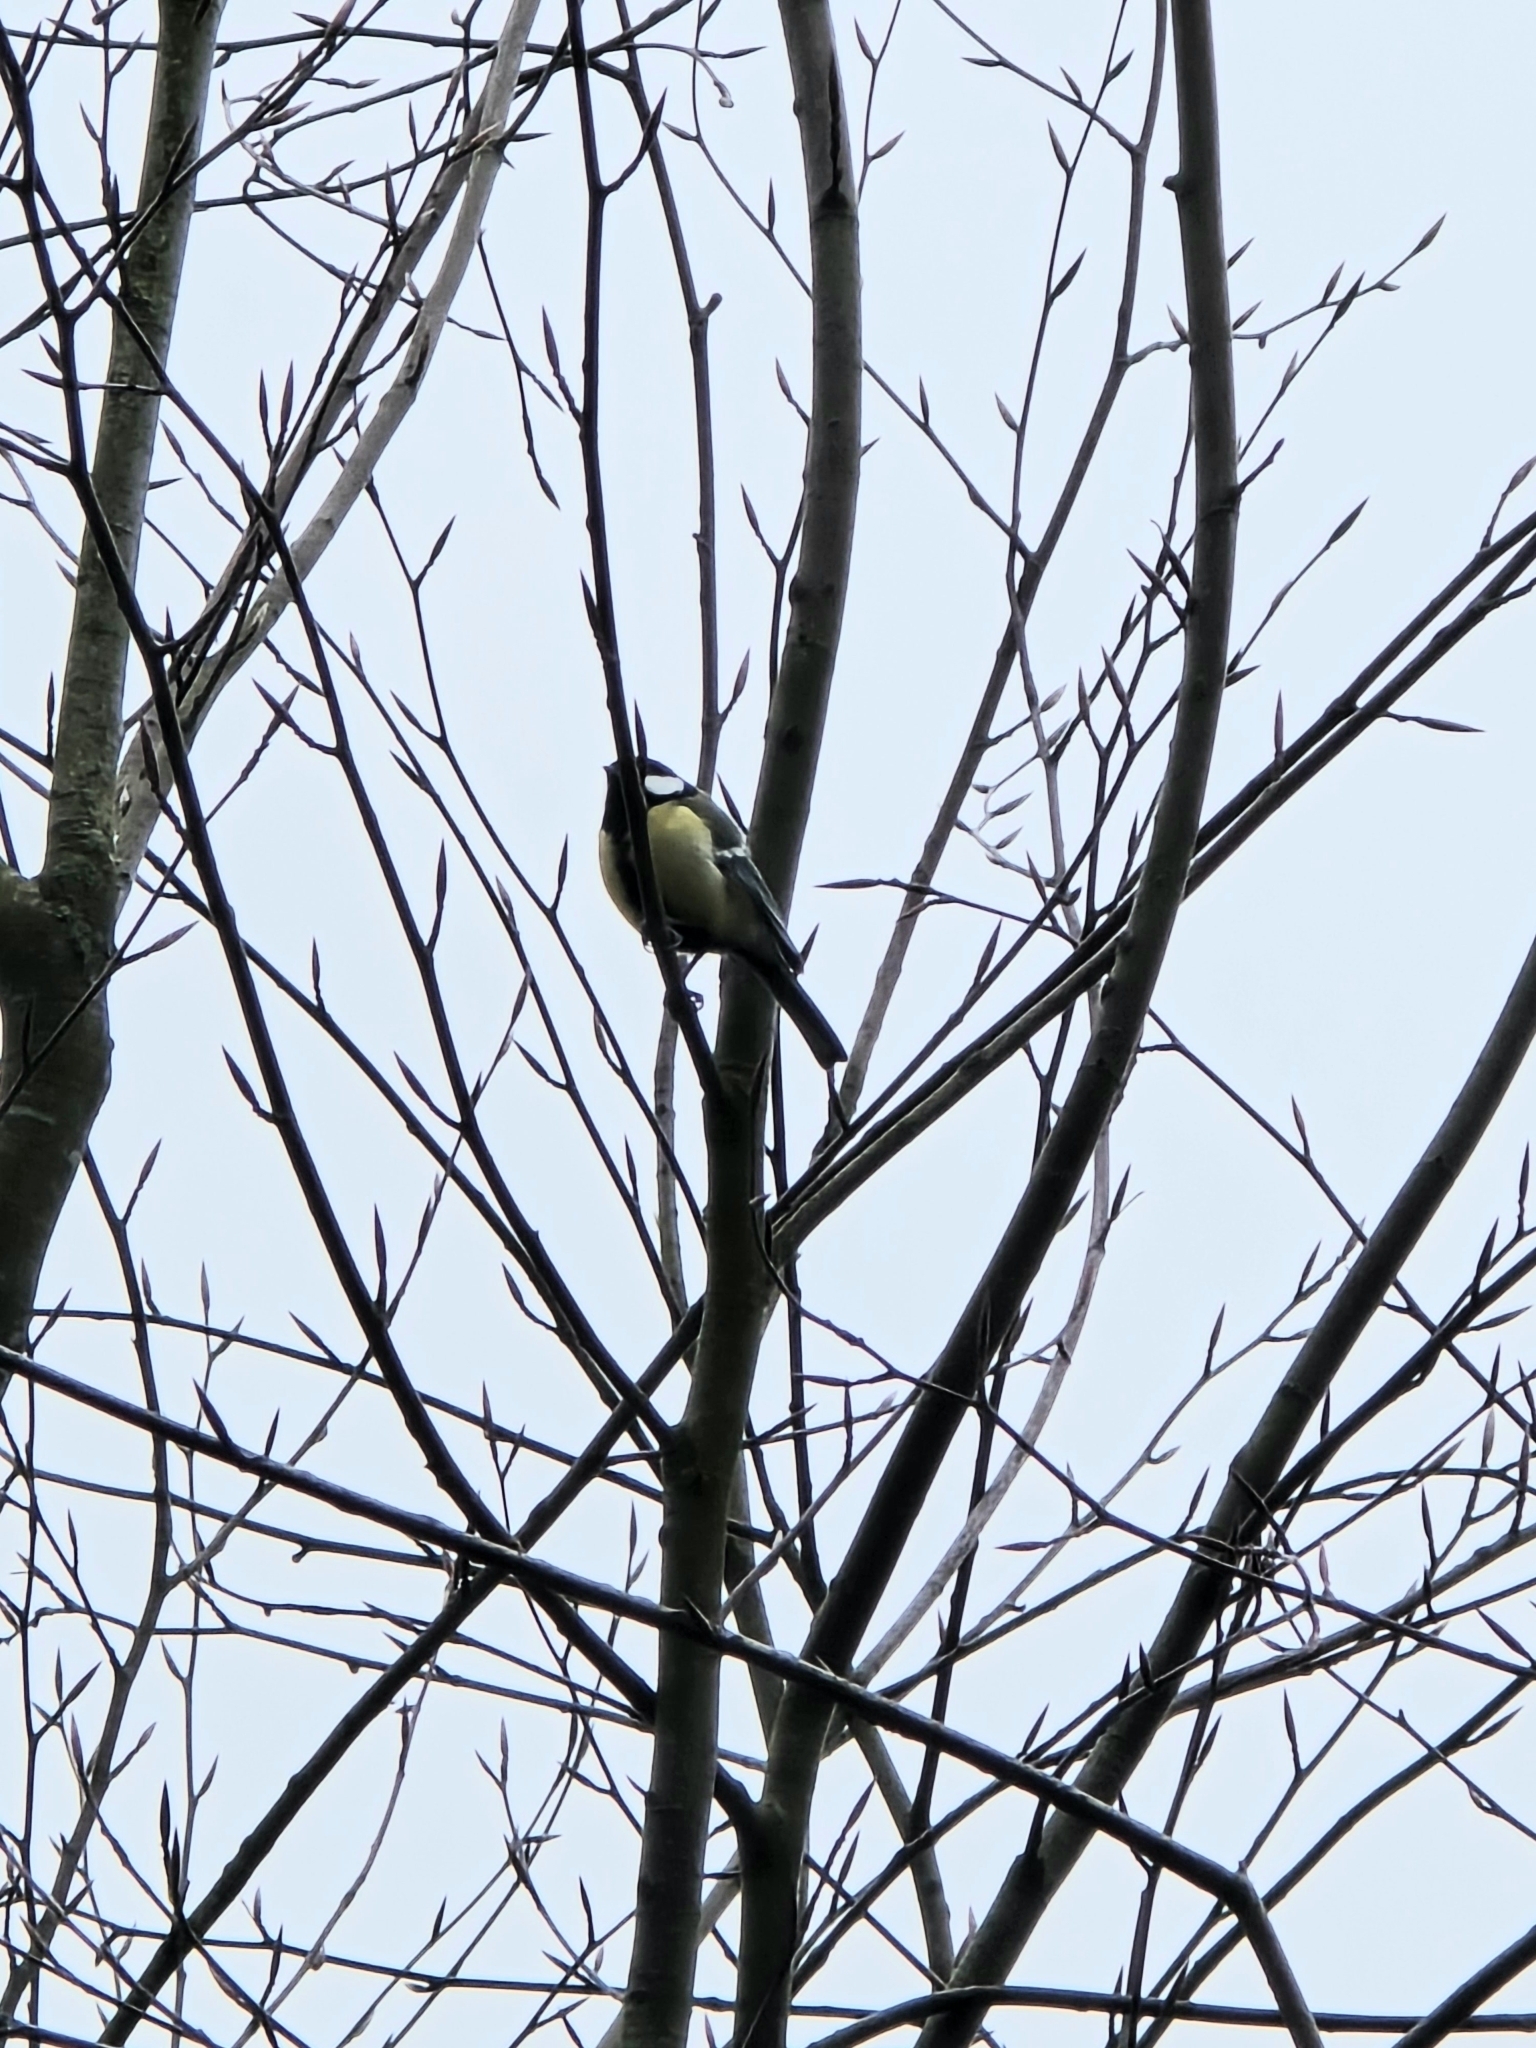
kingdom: Animalia
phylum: Chordata
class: Aves
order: Passeriformes
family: Paridae
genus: Parus
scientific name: Parus major
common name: Great tit
